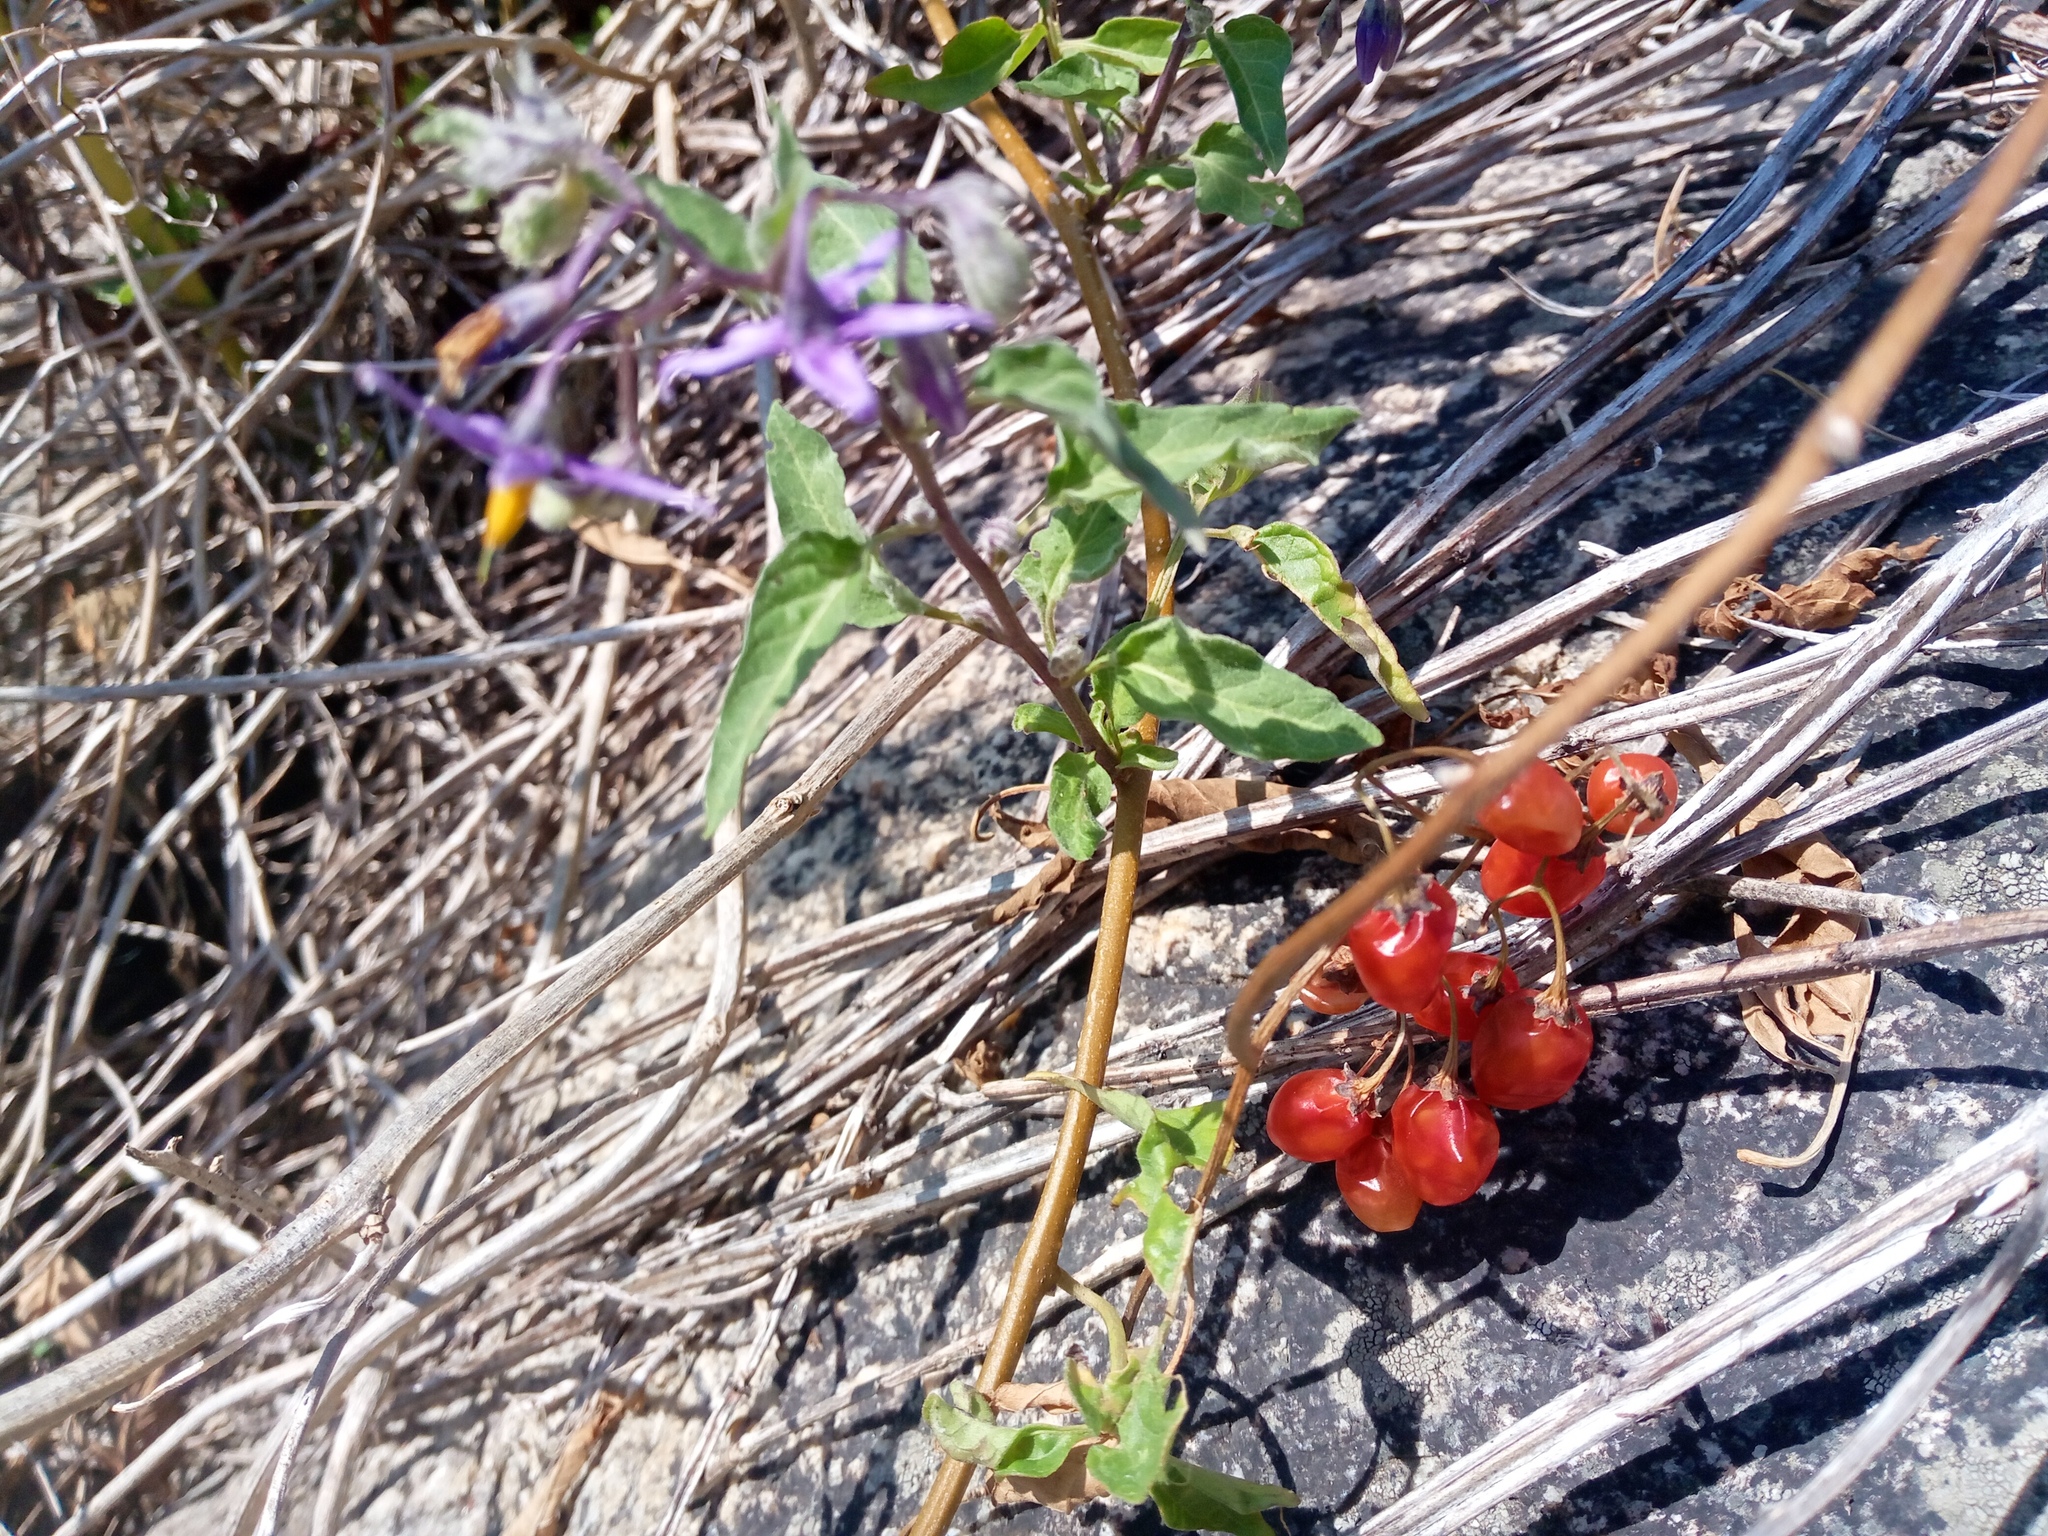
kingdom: Plantae
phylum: Tracheophyta
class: Magnoliopsida
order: Solanales
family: Solanaceae
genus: Solanum
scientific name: Solanum dulcamara
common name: Climbing nightshade
